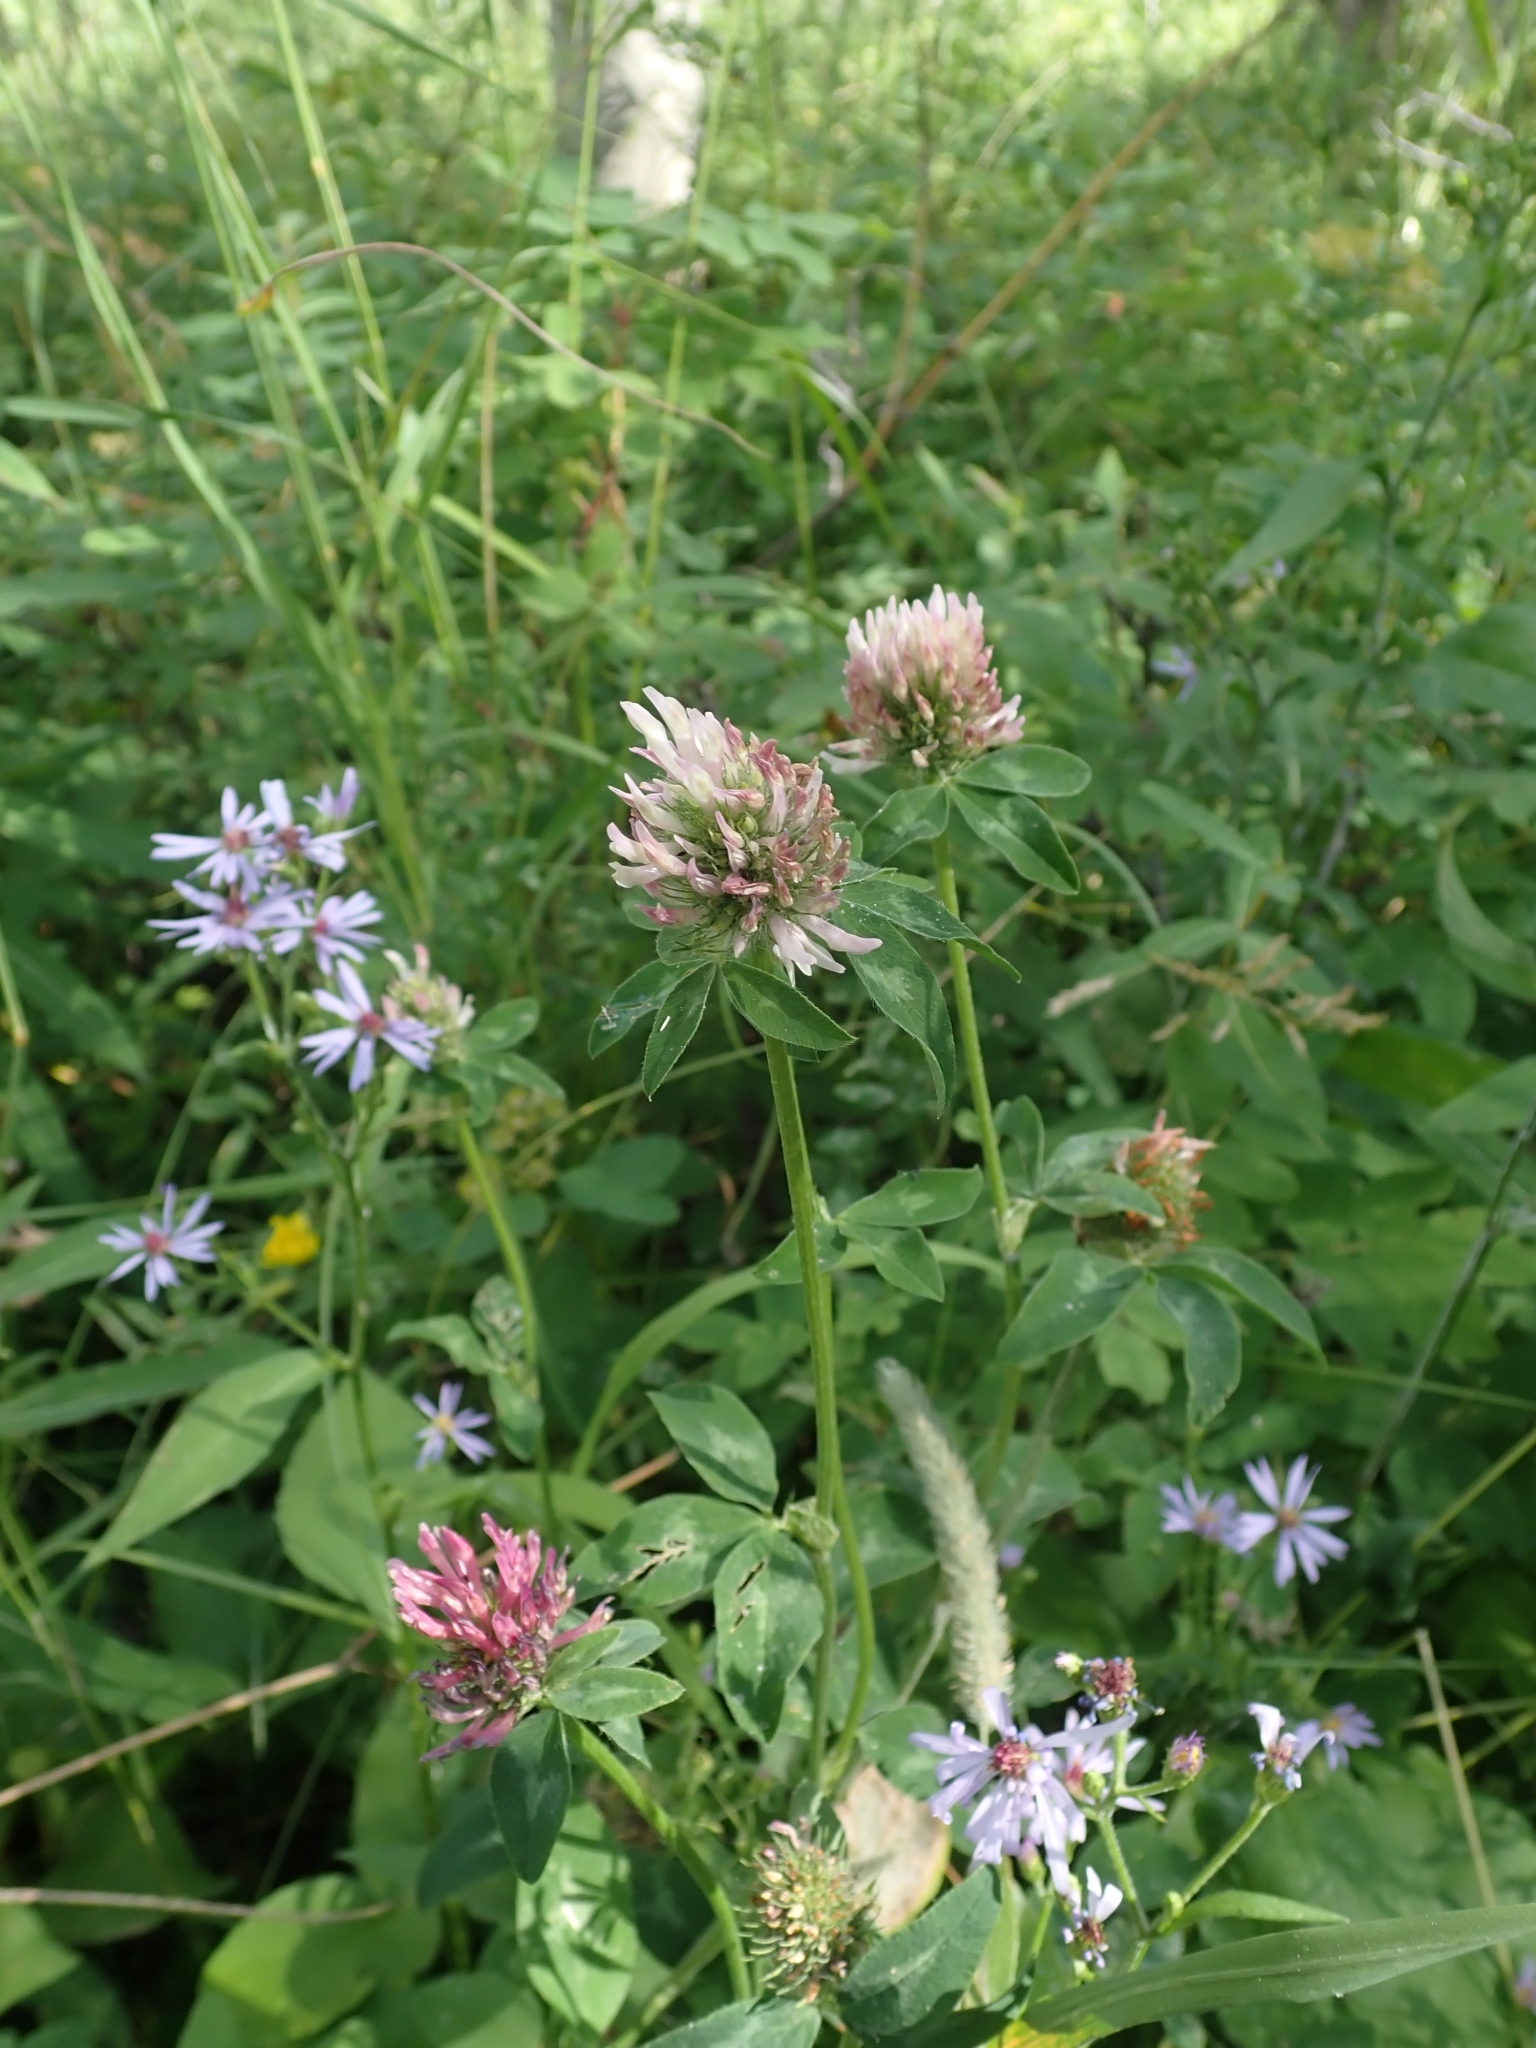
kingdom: Plantae
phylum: Tracheophyta
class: Magnoliopsida
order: Fabales
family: Fabaceae
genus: Trifolium
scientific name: Trifolium pratense
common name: Red clover
